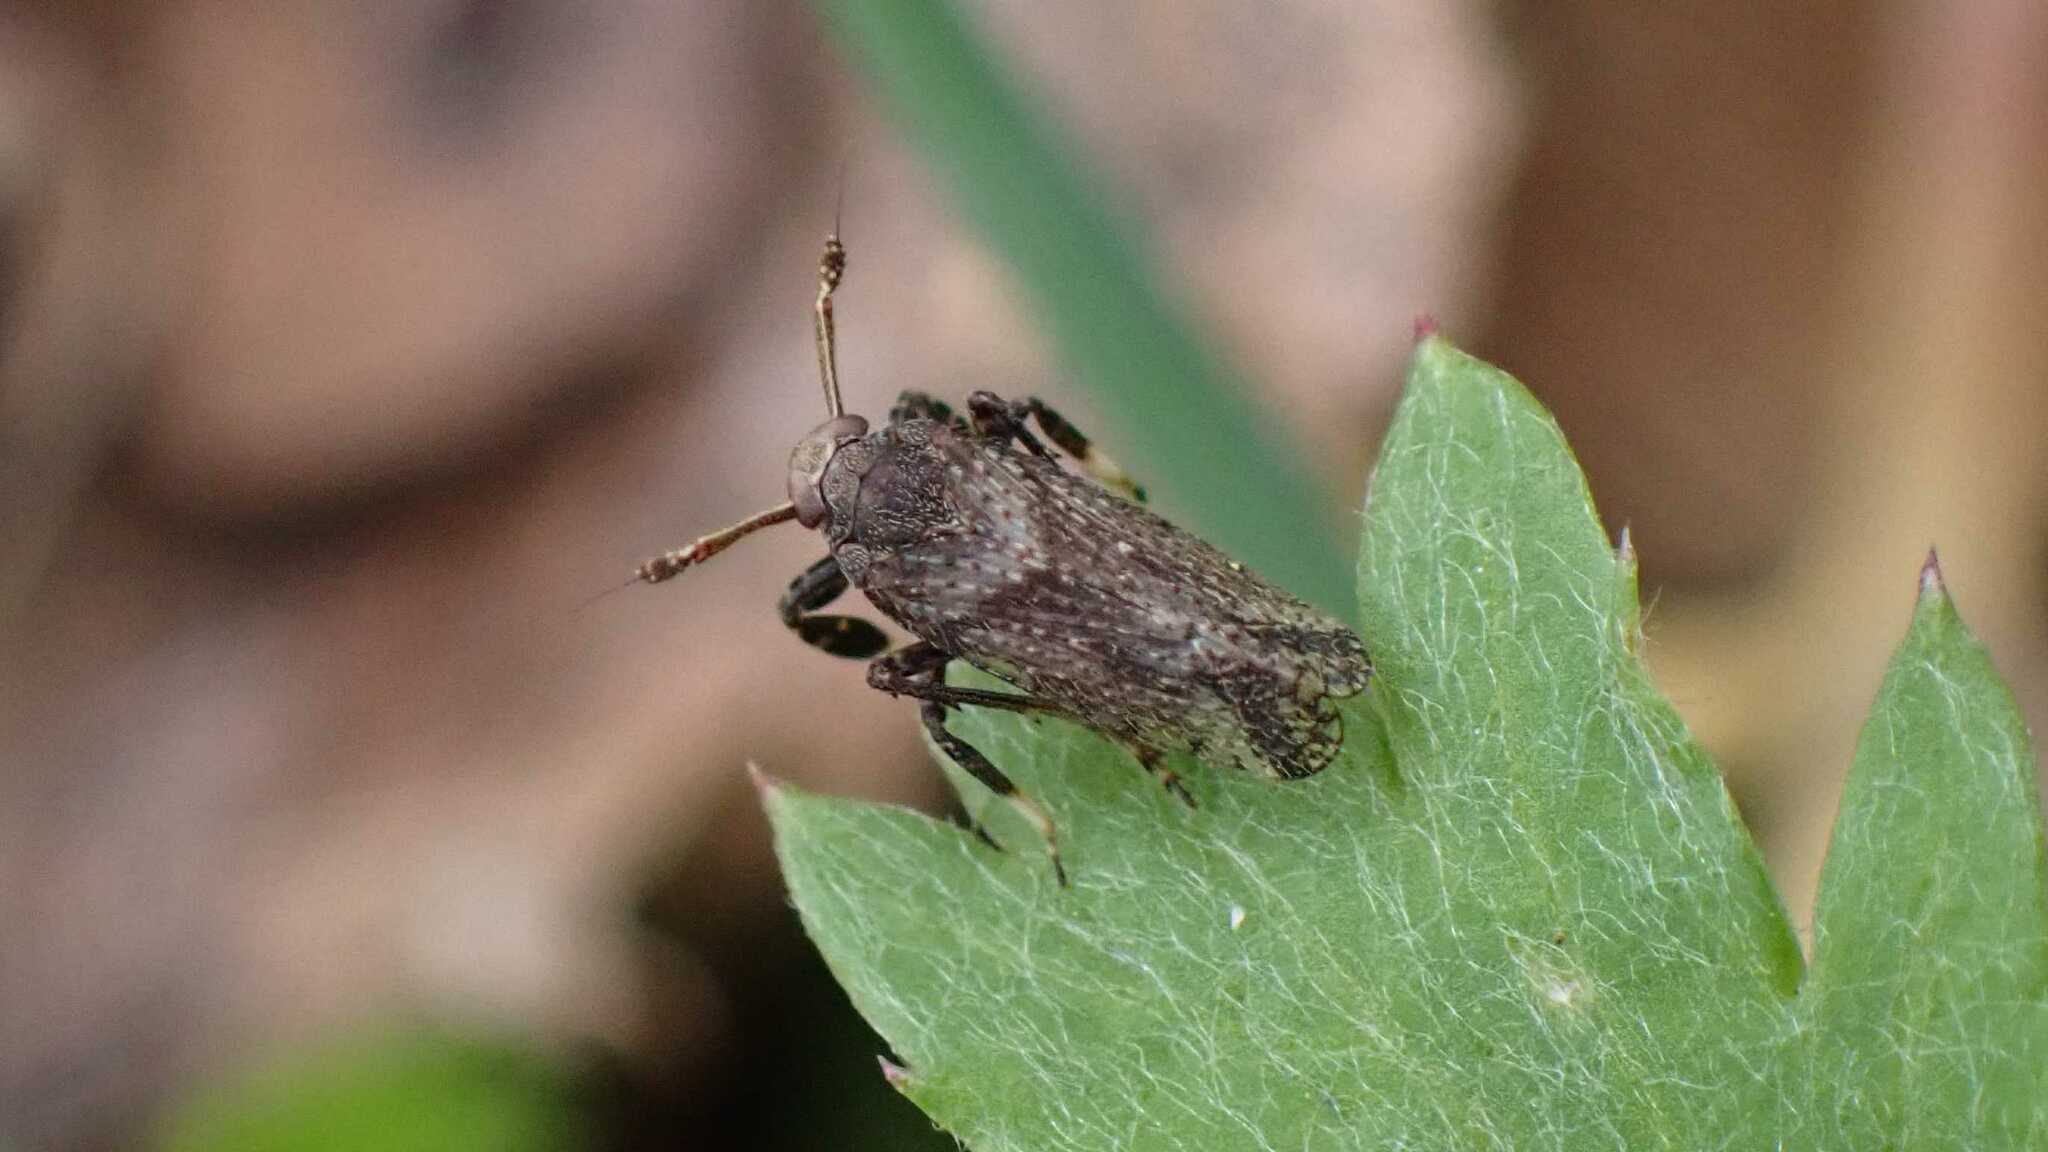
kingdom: Animalia
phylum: Arthropoda
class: Insecta
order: Hemiptera
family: Delphacidae
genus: Asiraca
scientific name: Asiraca clavicornis
